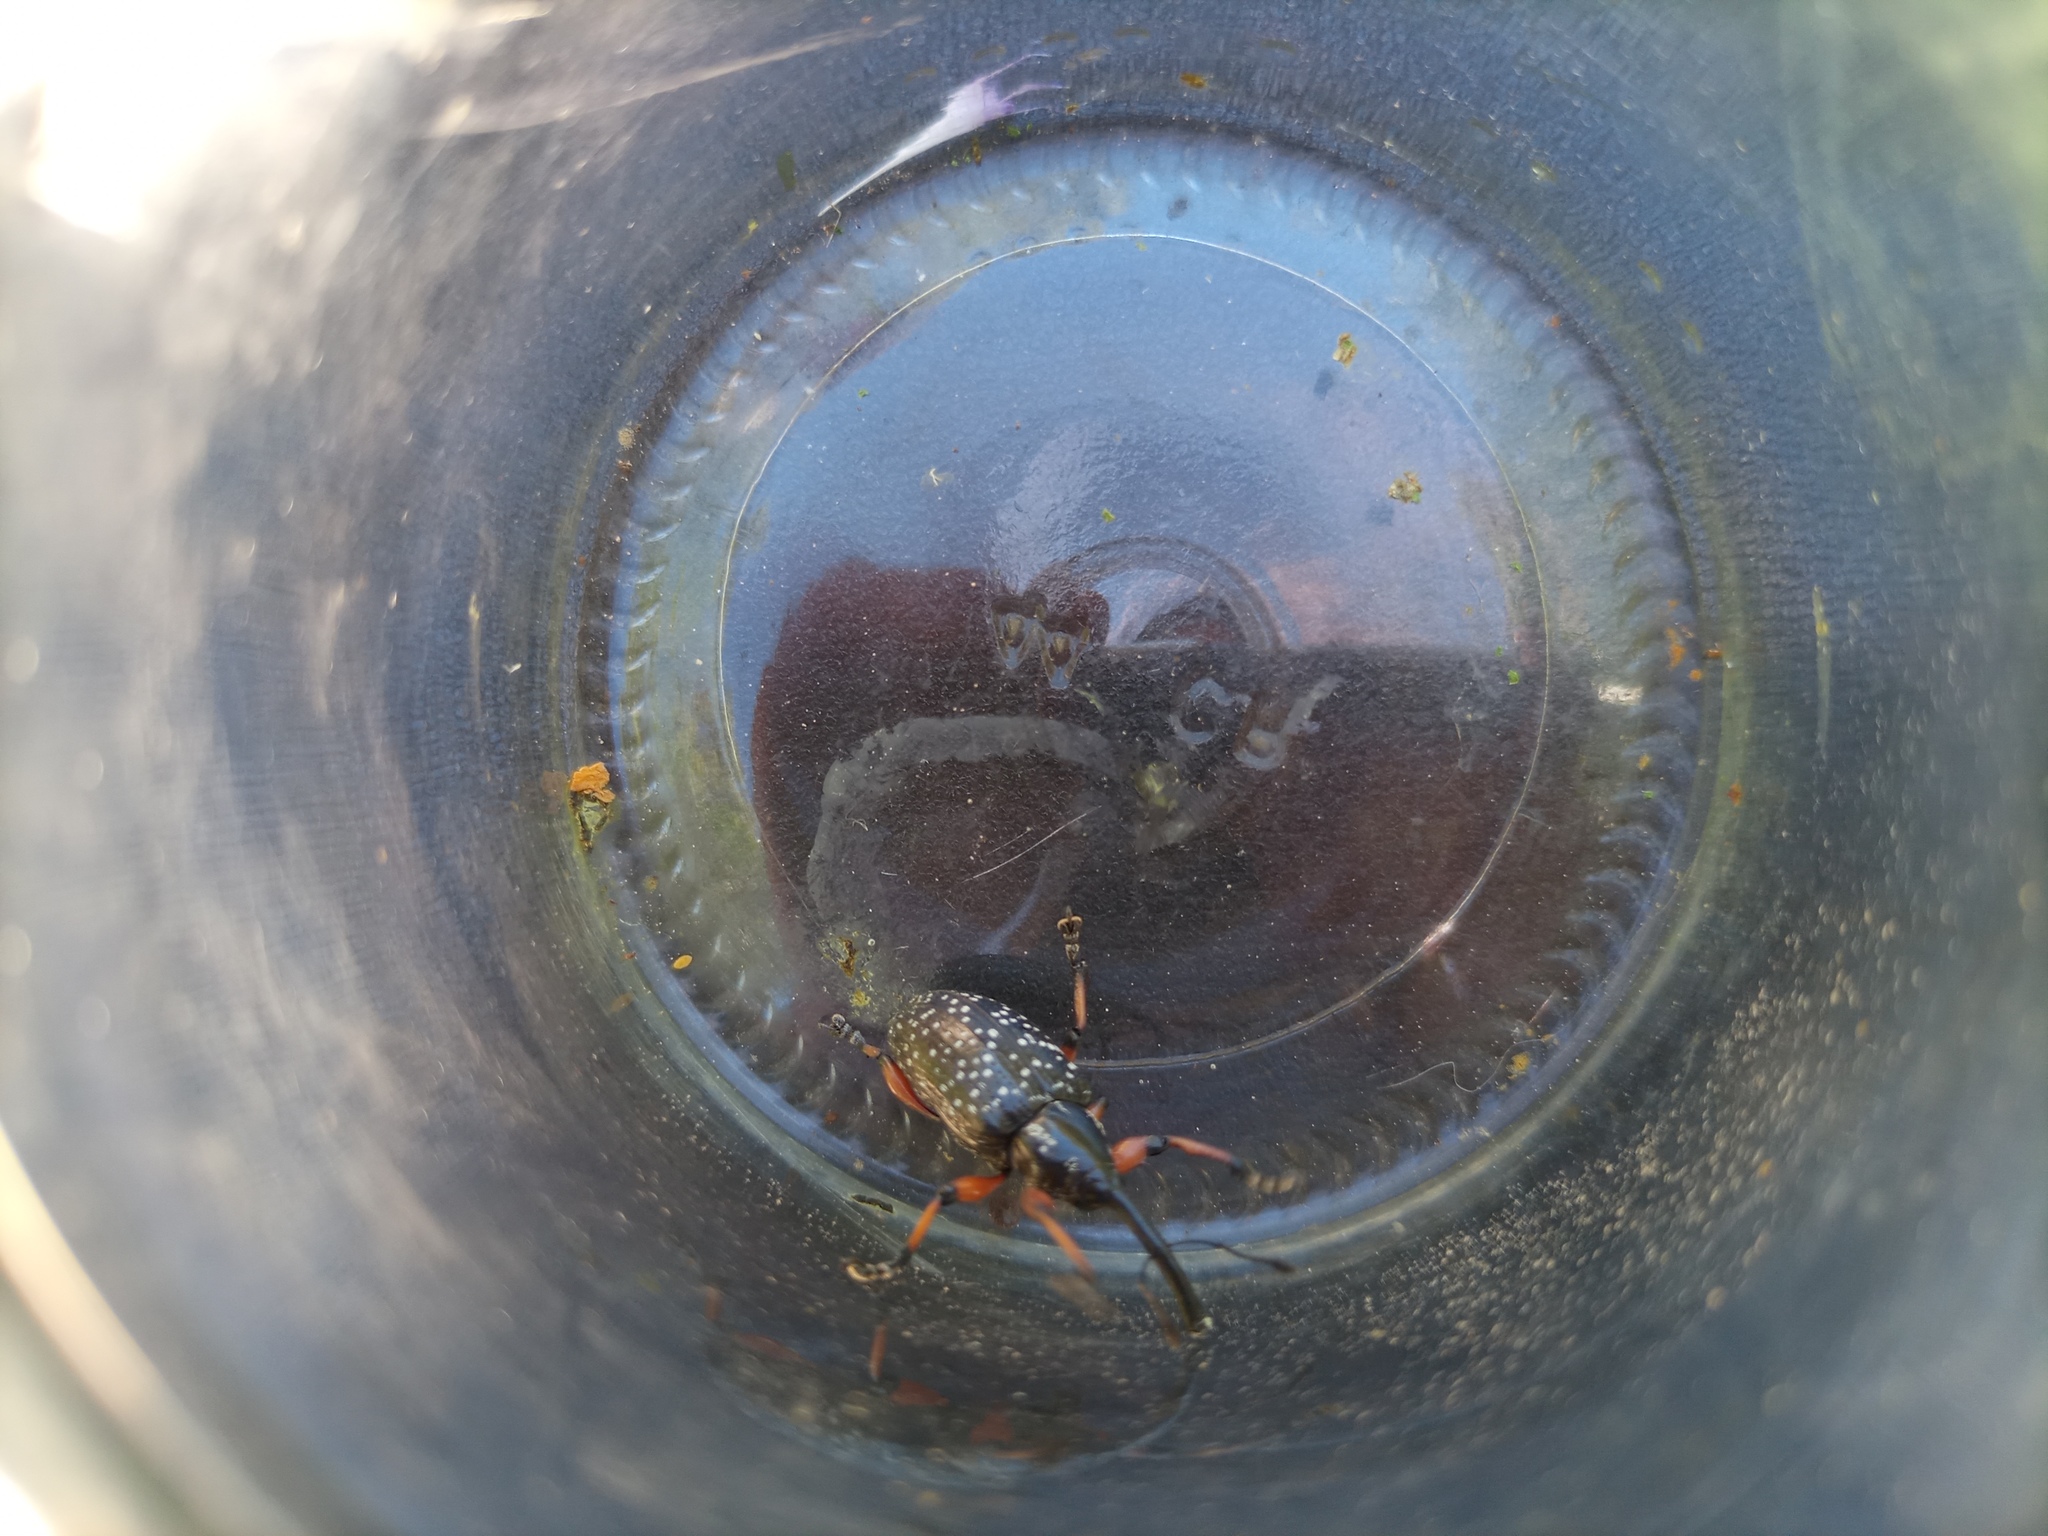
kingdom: Animalia
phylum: Arthropoda
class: Insecta
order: Coleoptera
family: Curculionidae
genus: Heilipodus
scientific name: Heilipodus erythropus
